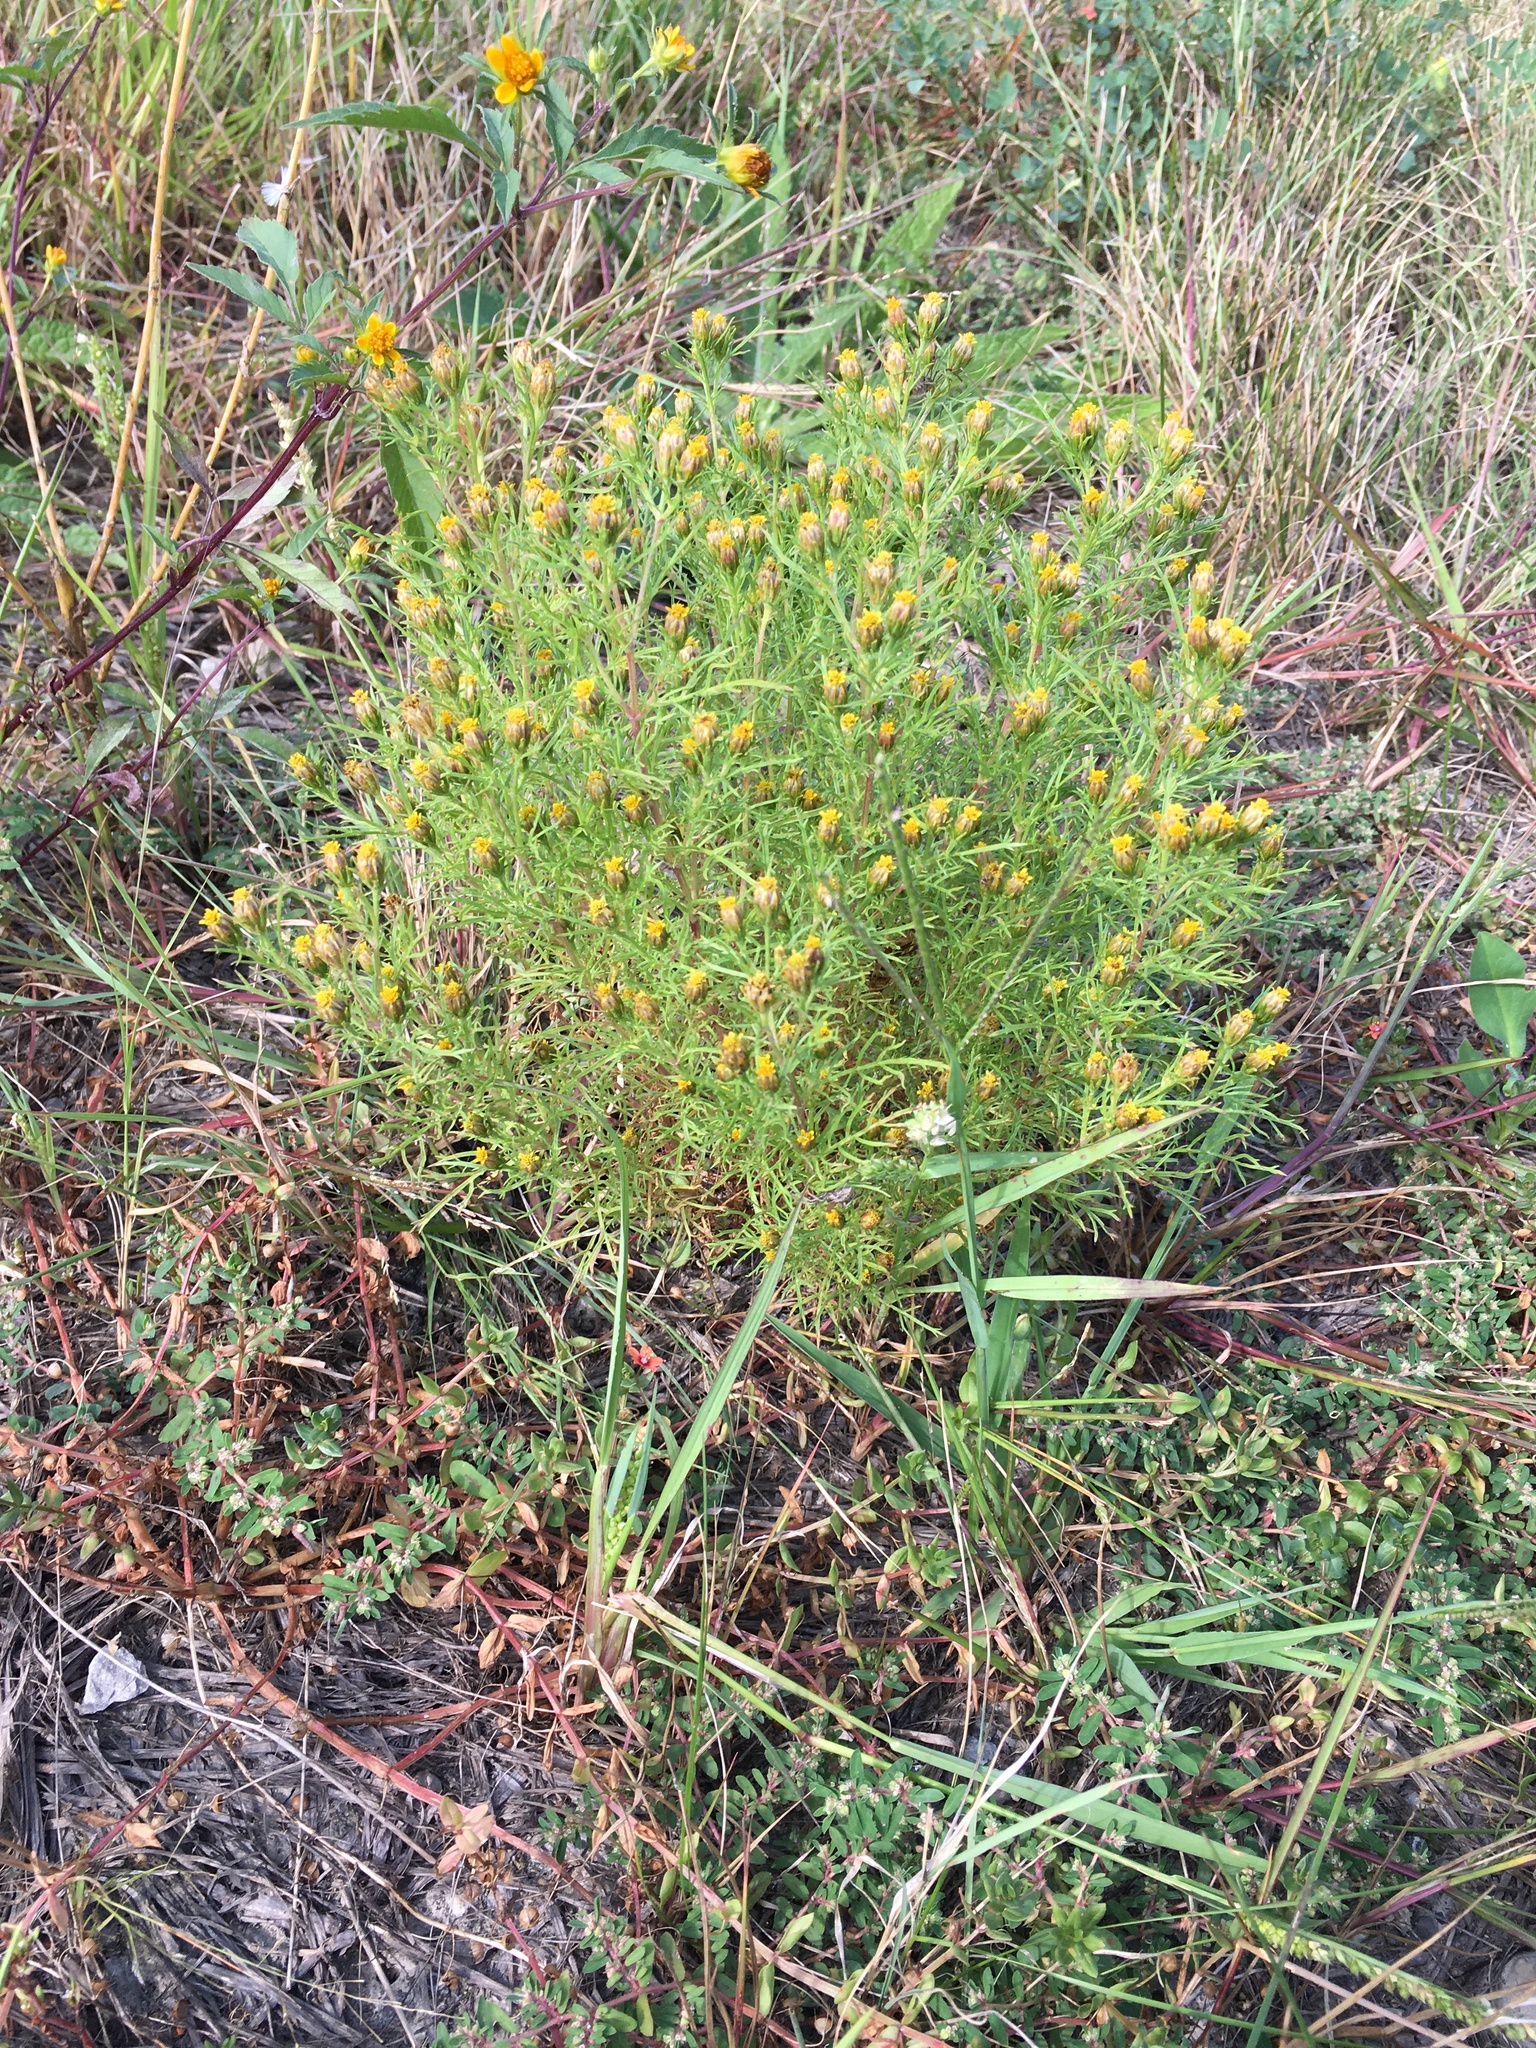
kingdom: Plantae
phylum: Tracheophyta
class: Magnoliopsida
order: Asterales
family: Asteraceae
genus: Dyssodia
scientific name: Dyssodia papposa
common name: Dogweed
